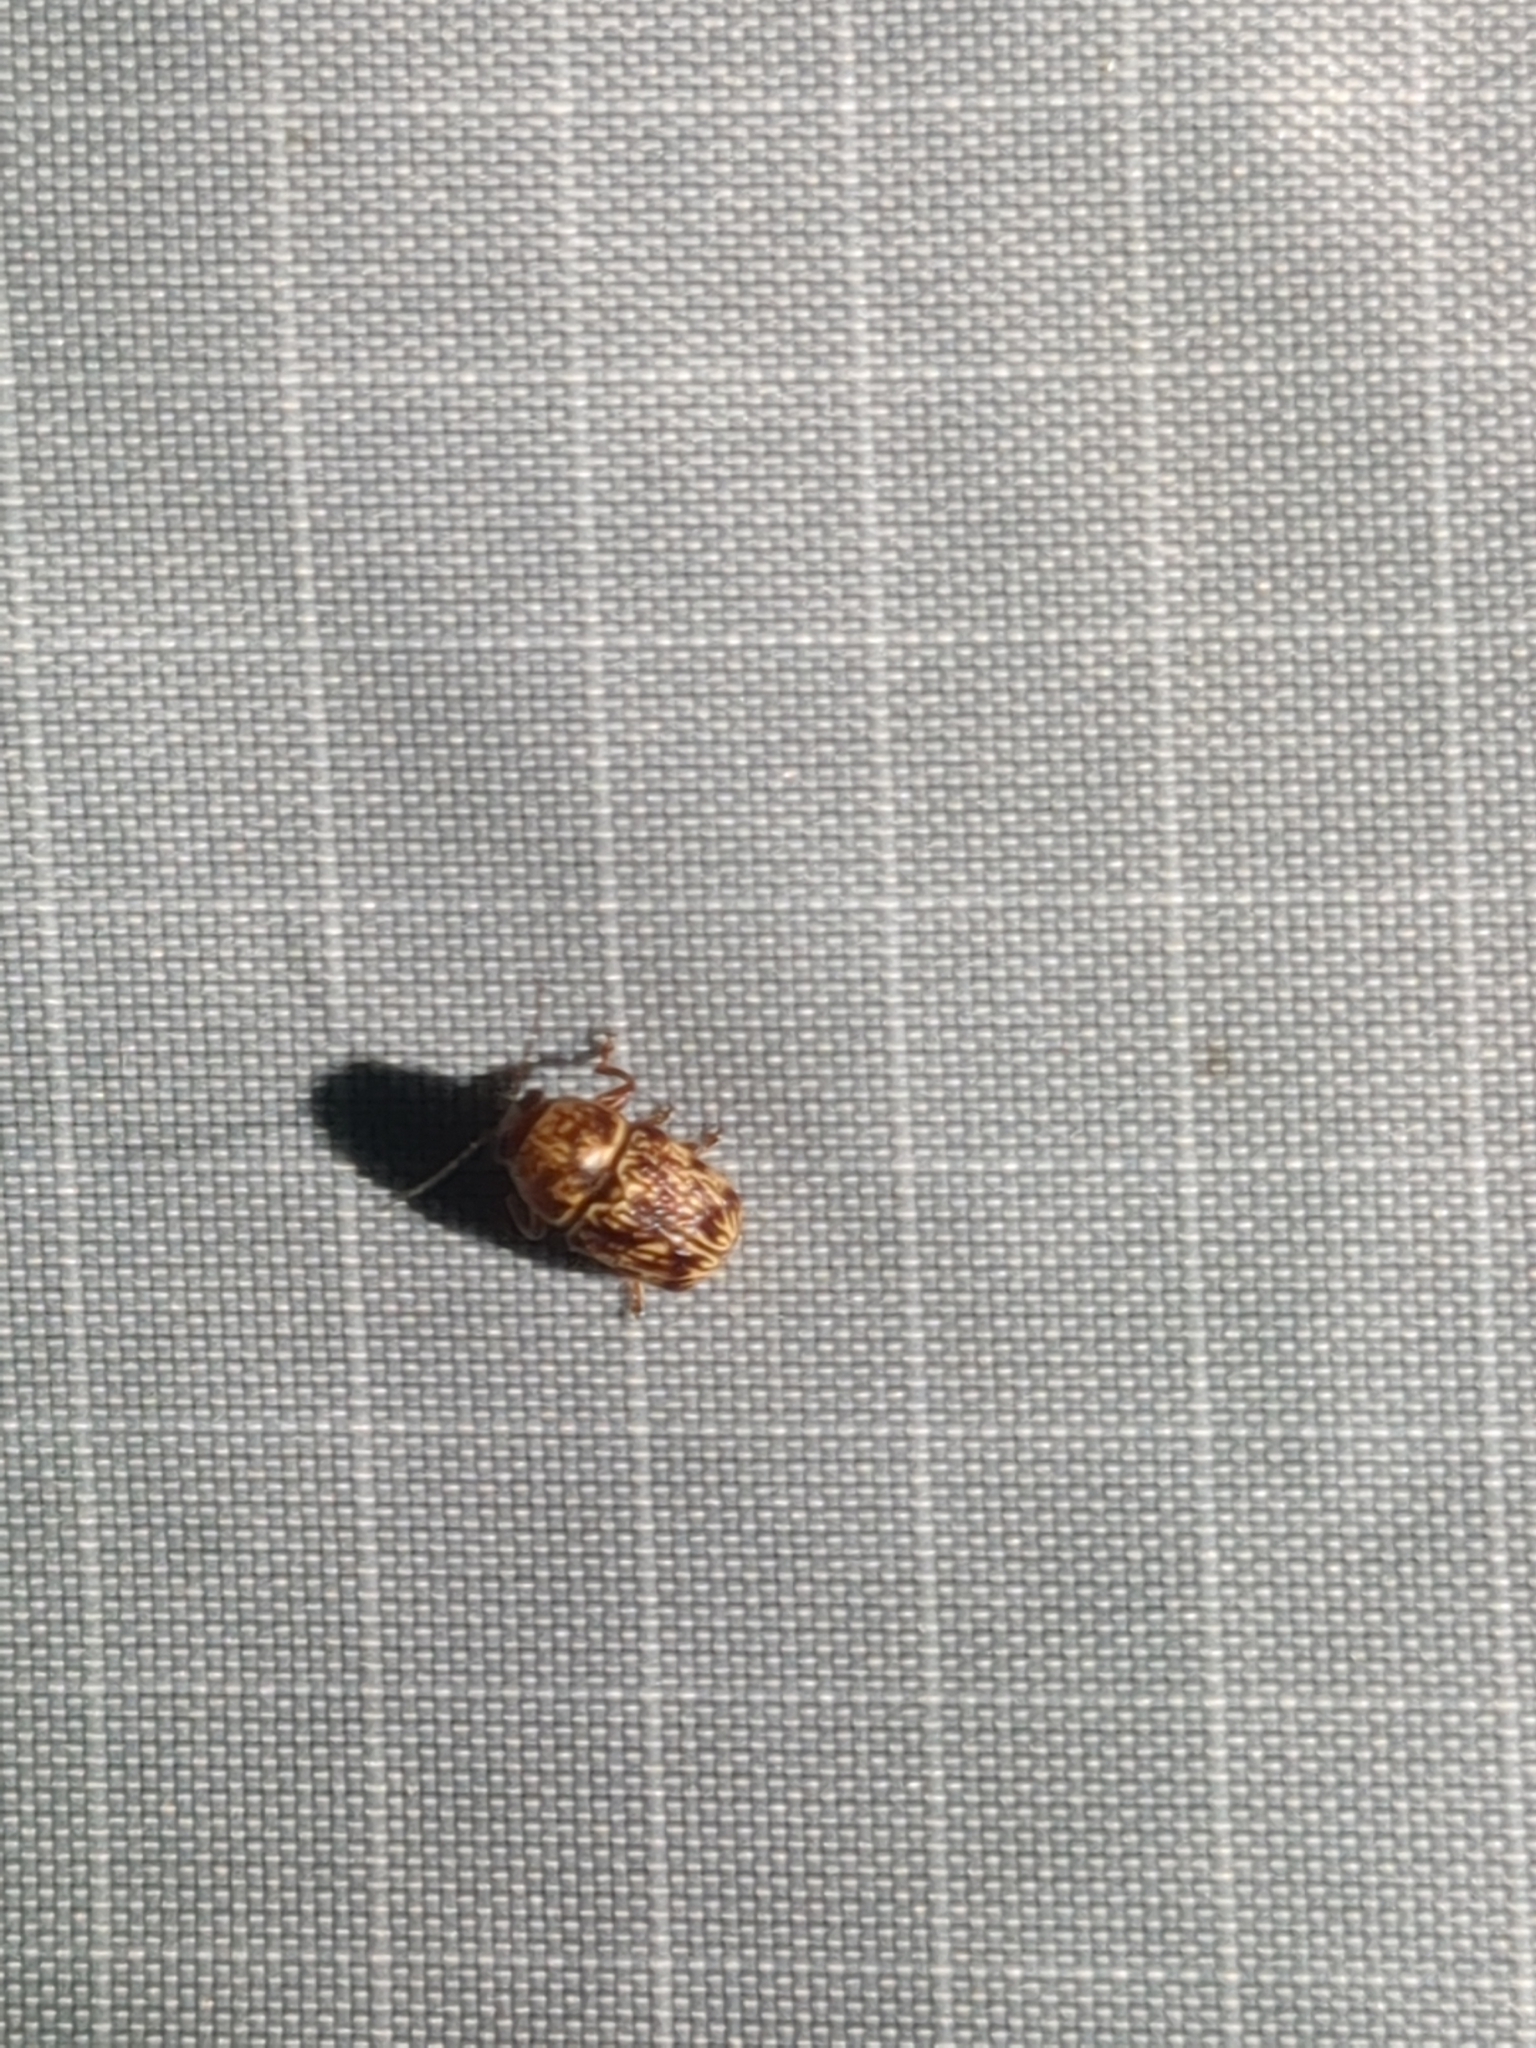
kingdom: Animalia
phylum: Arthropoda
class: Insecta
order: Coleoptera
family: Chrysomelidae
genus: Pachybrachis
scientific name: Pachybrachis
